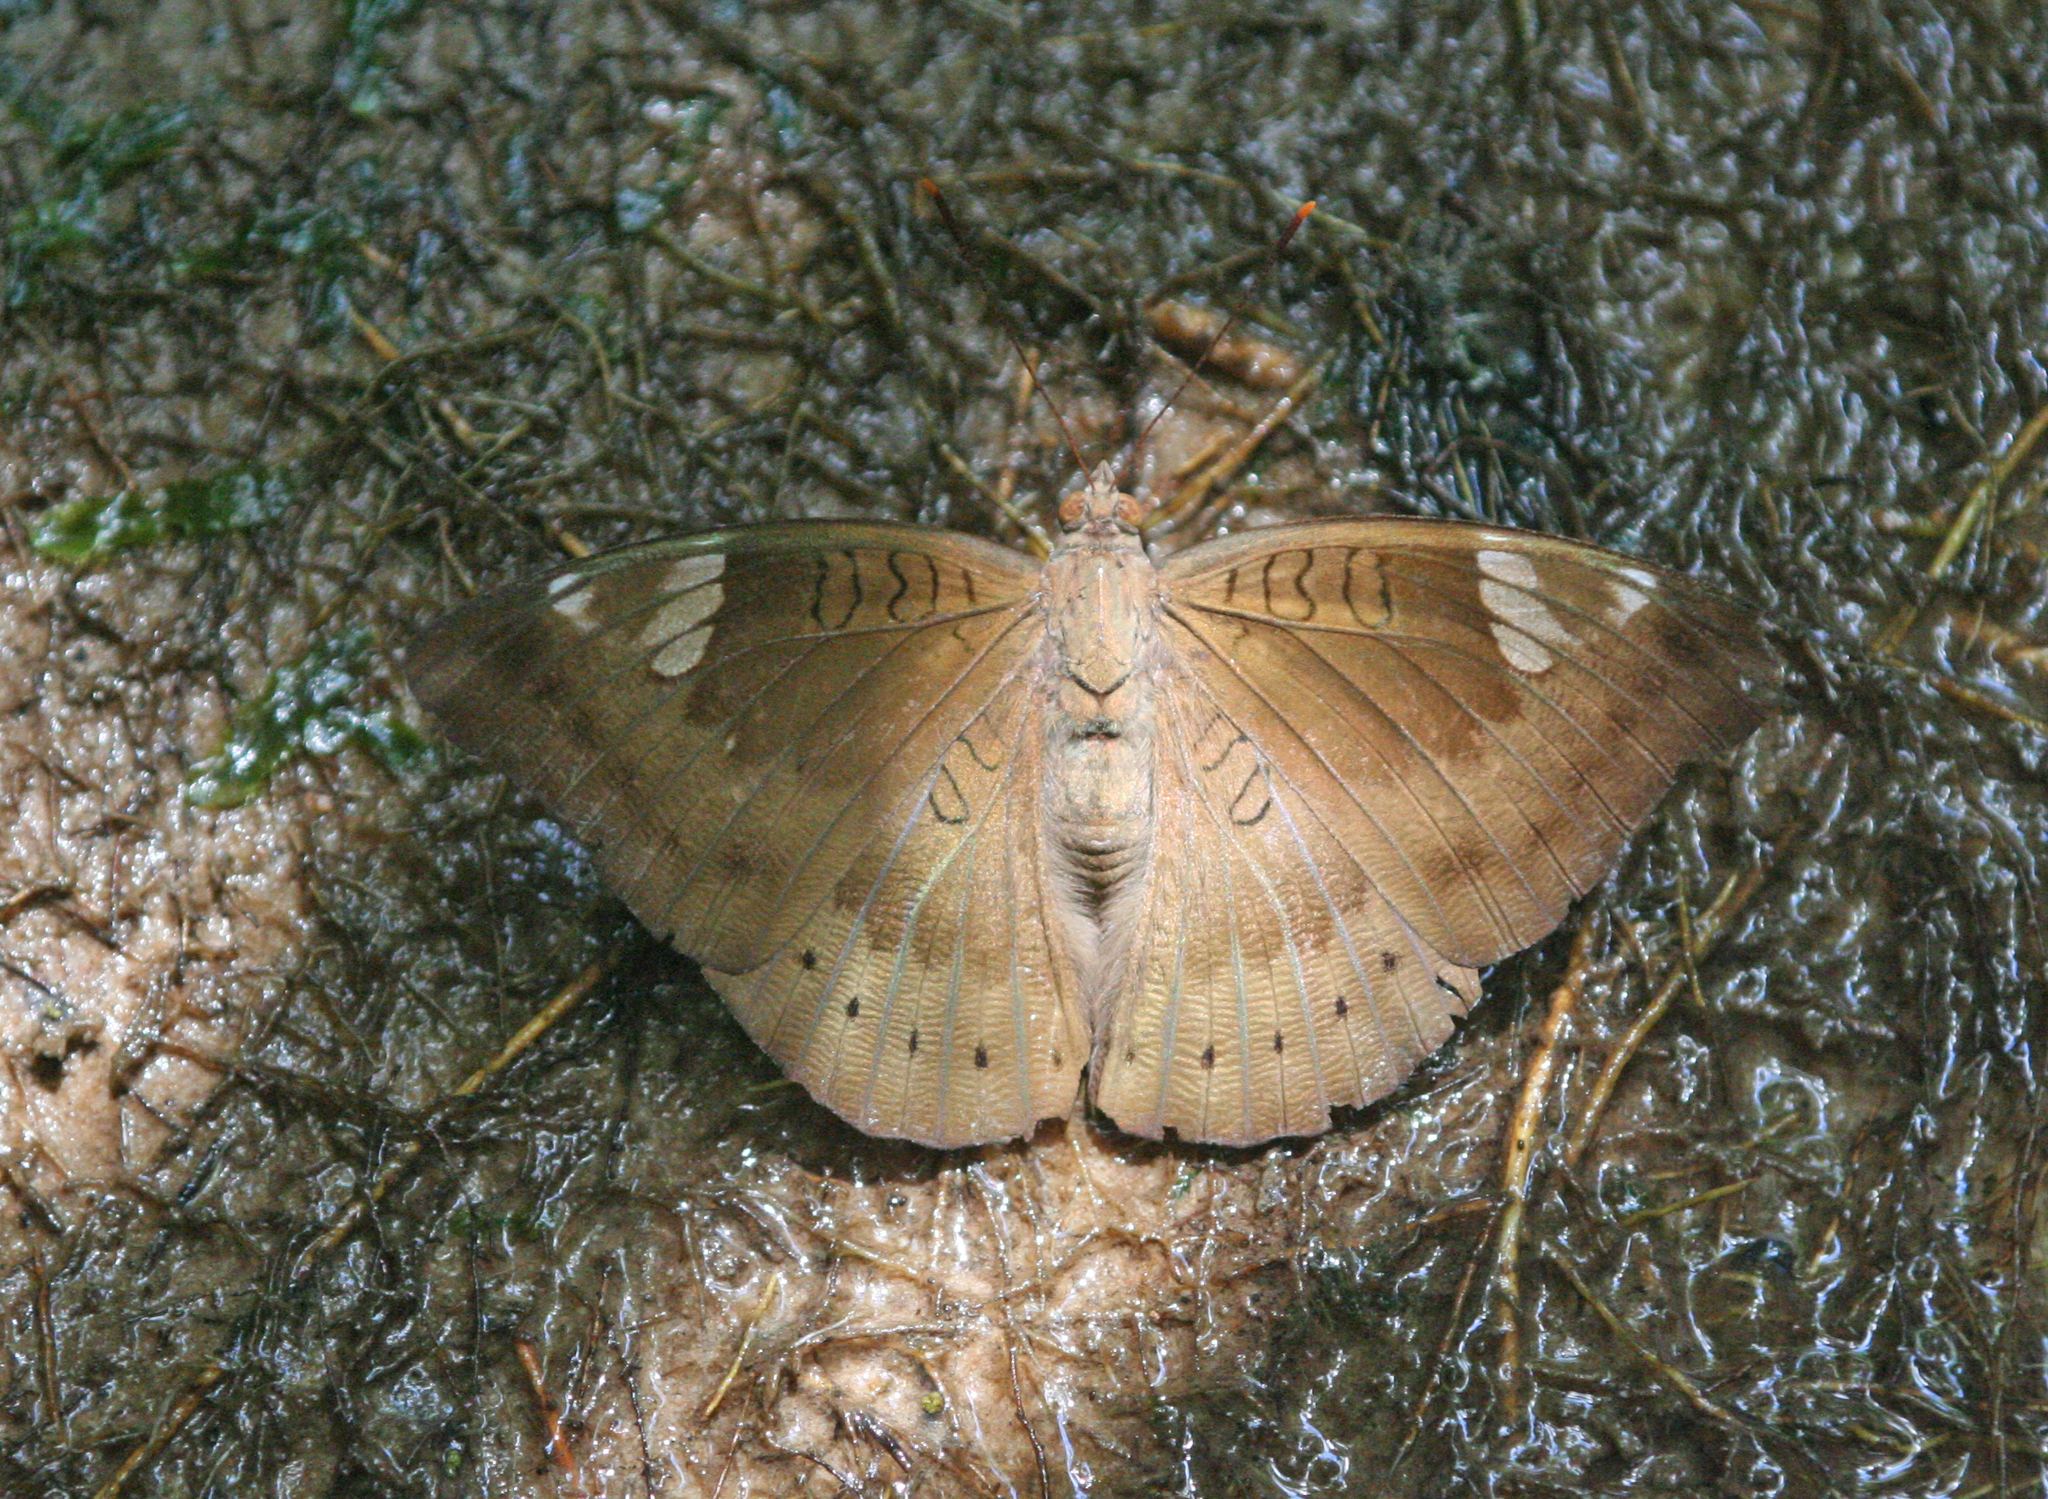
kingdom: Animalia
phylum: Arthropoda
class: Insecta
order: Lepidoptera
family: Nymphalidae
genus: Euthalia
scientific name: Euthalia aconthea
